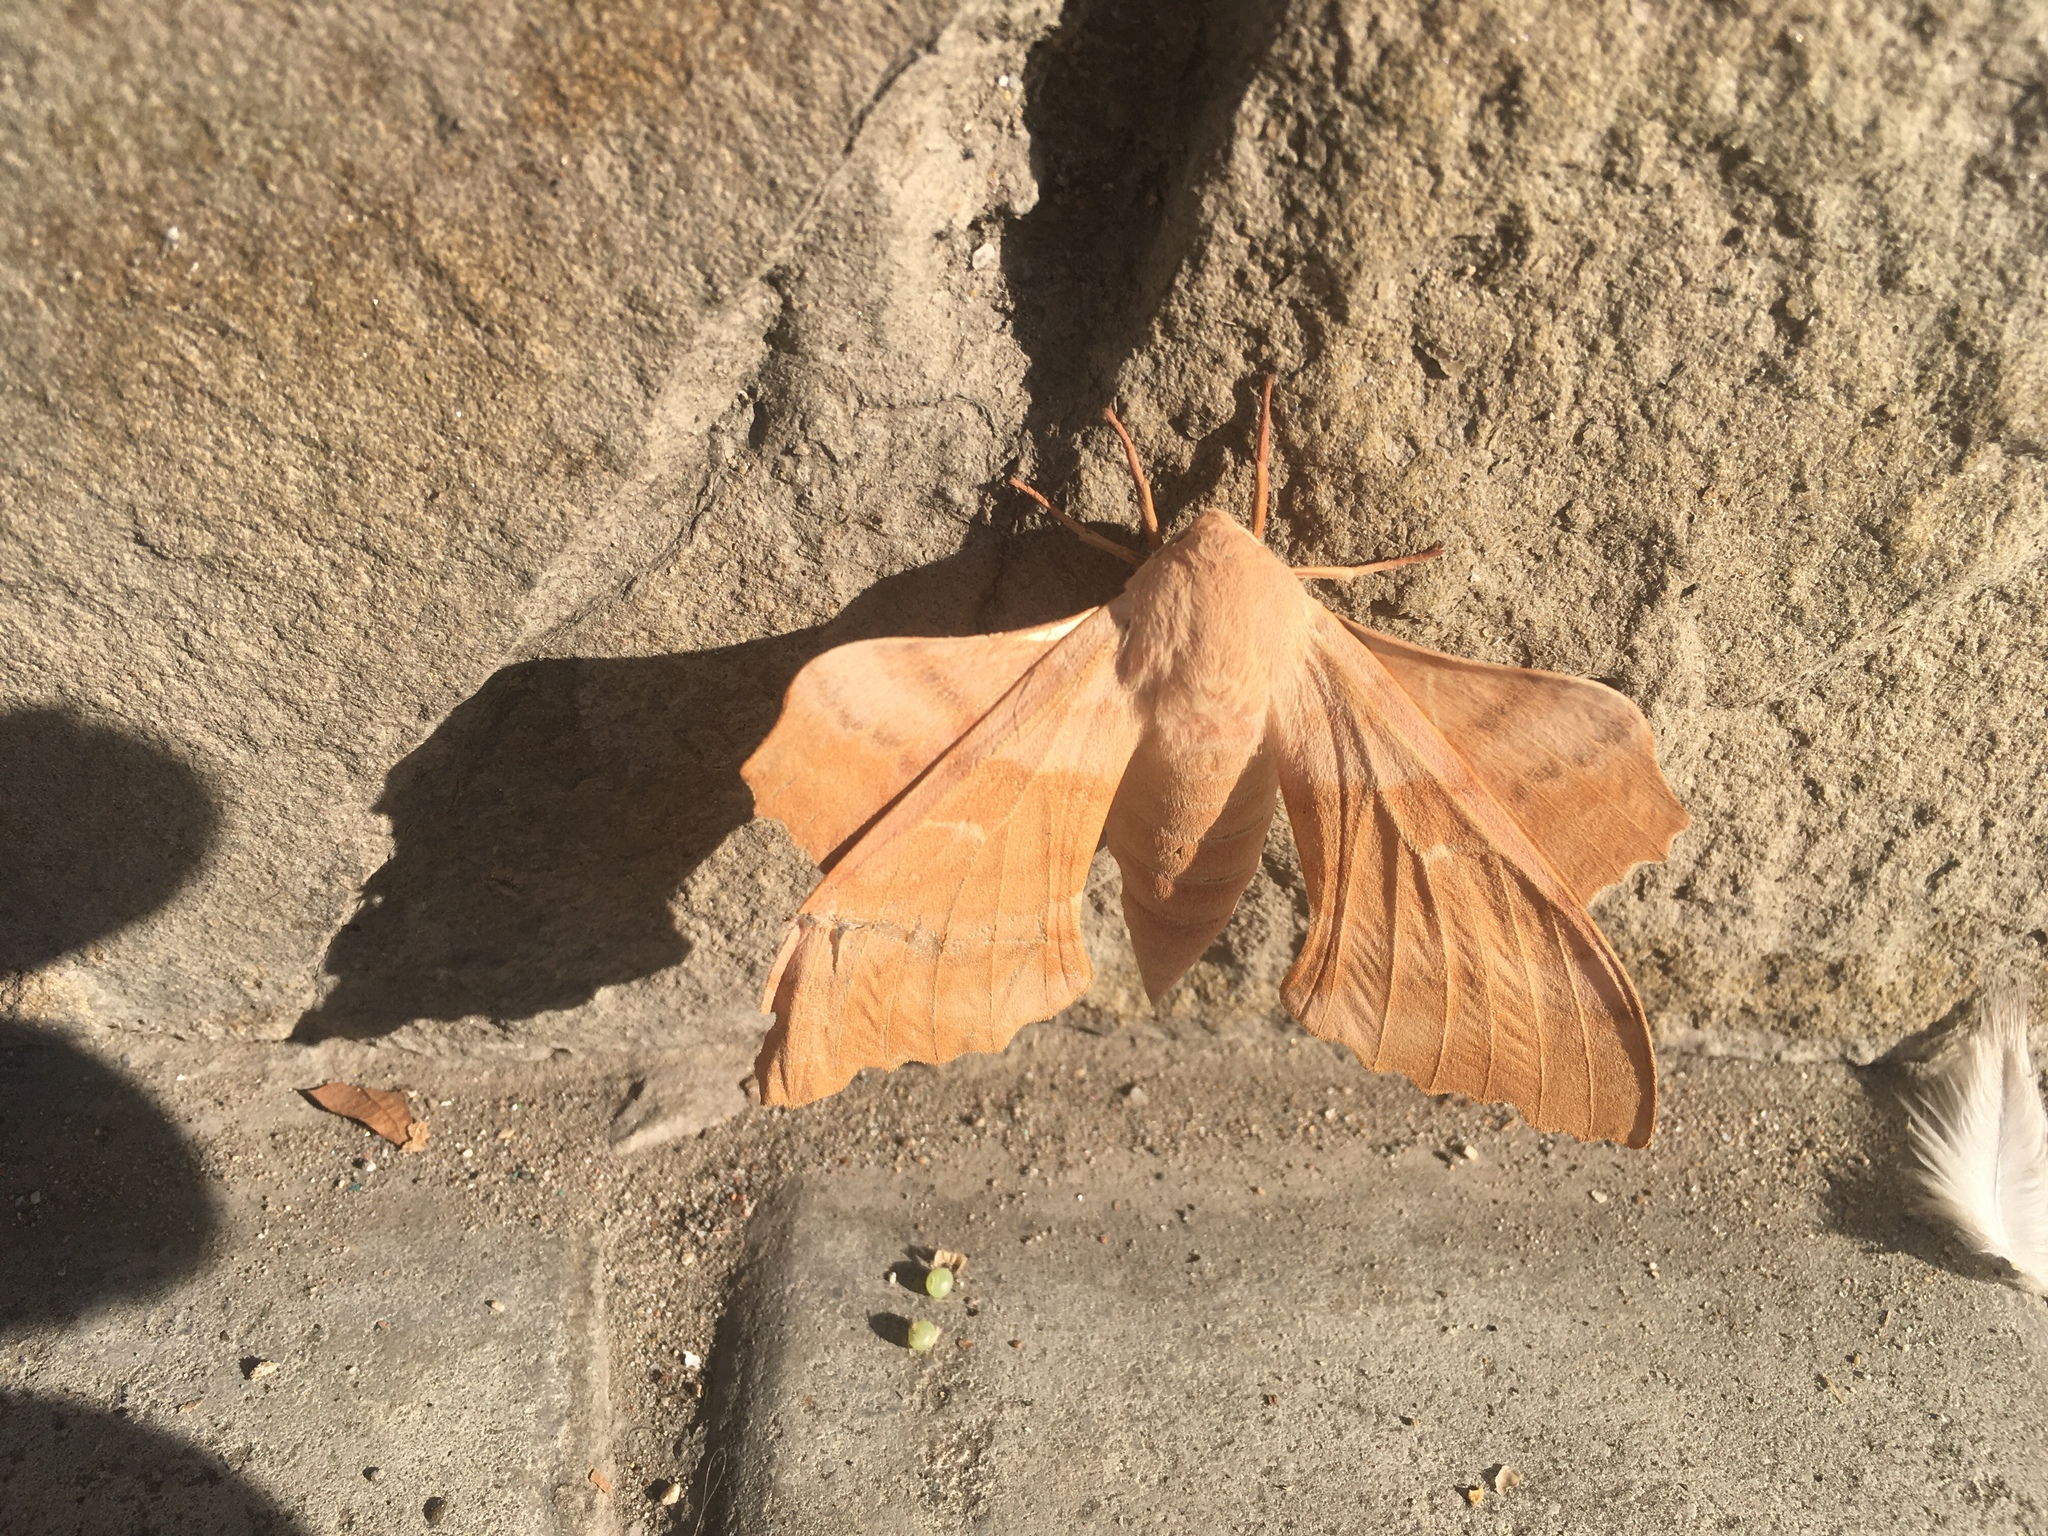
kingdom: Animalia
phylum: Arthropoda
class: Insecta
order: Lepidoptera
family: Sphingidae
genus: Laothoe
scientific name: Laothoe populi
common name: Poplar hawk-moth
